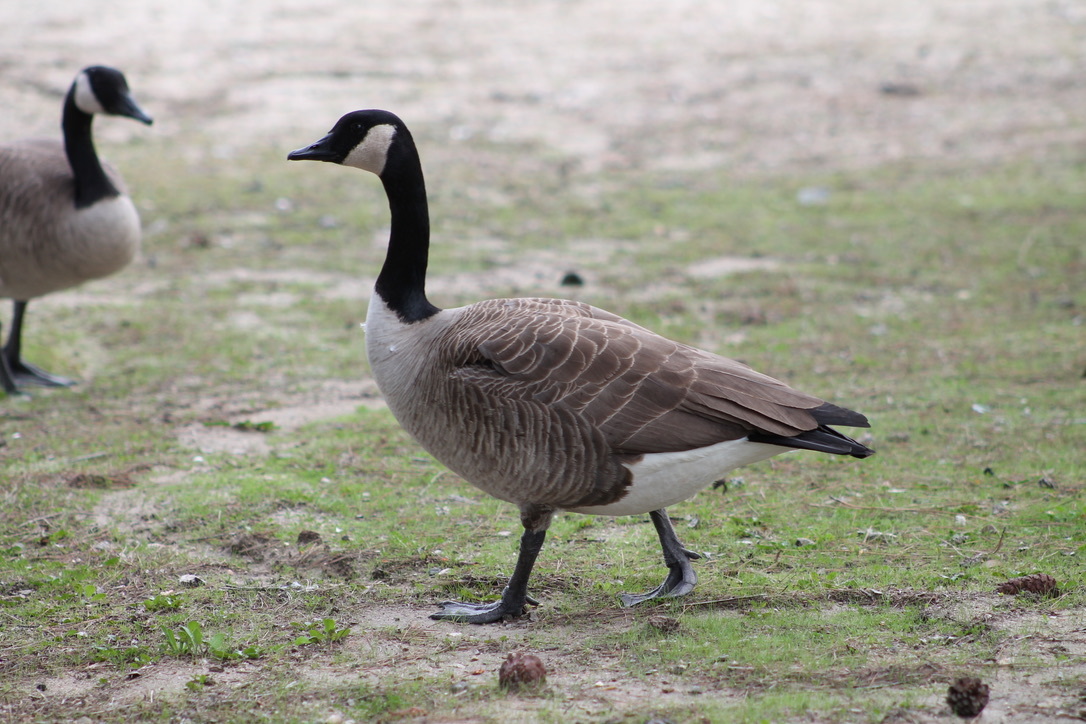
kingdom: Animalia
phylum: Chordata
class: Aves
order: Anseriformes
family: Anatidae
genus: Branta
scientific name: Branta canadensis
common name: Canada goose
